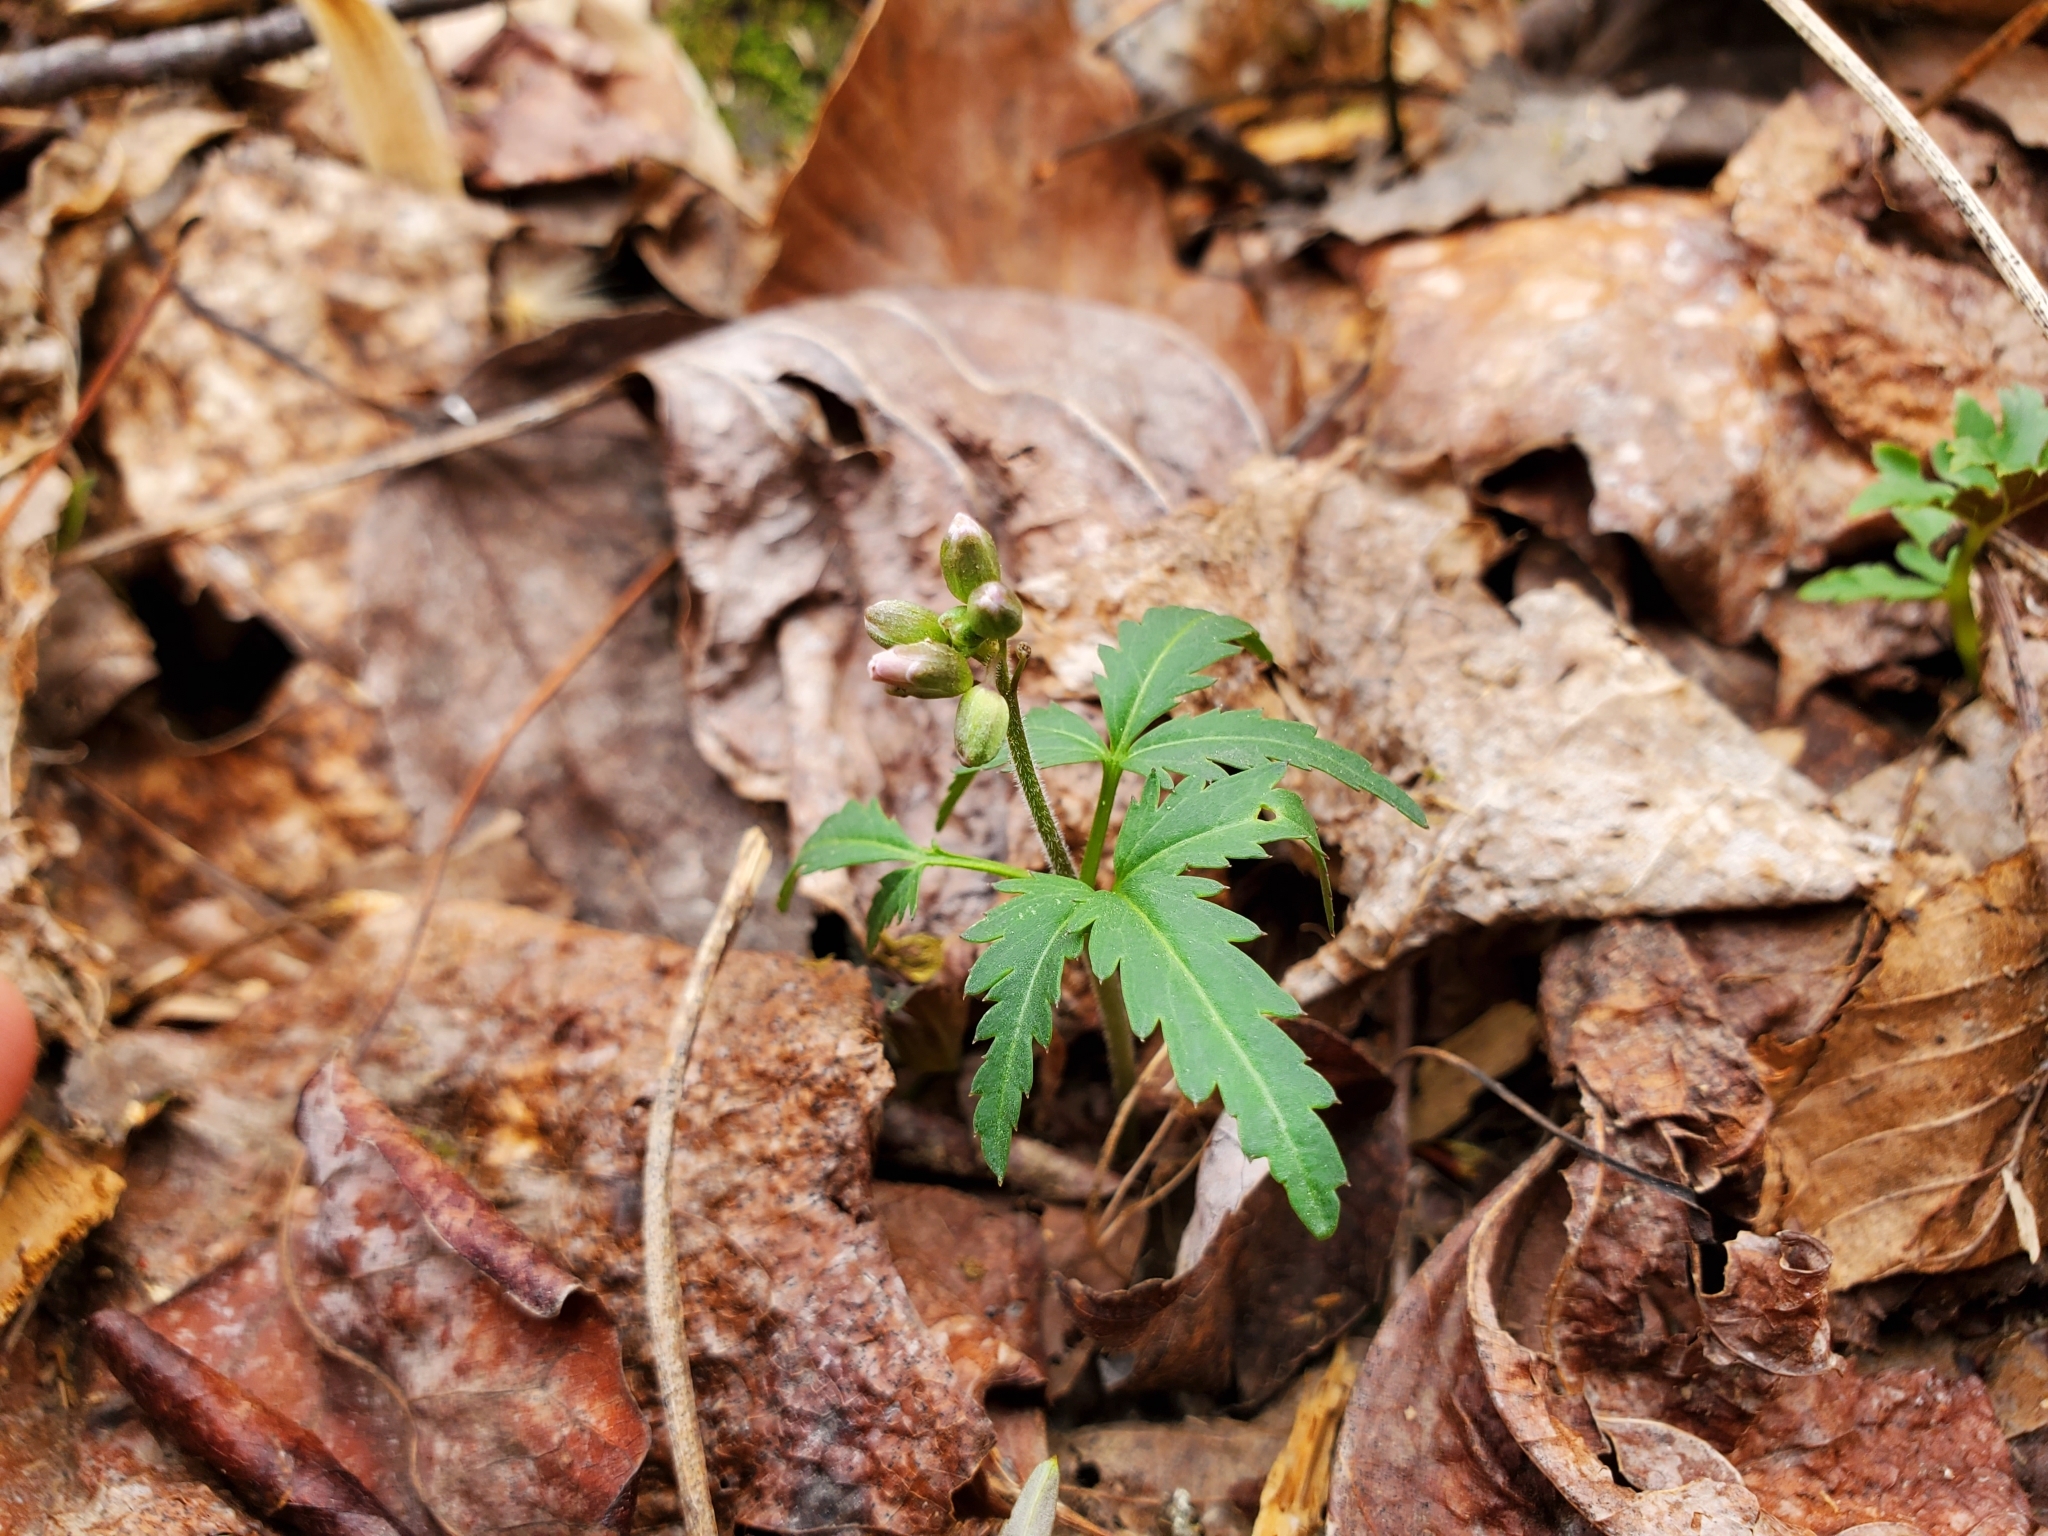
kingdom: Plantae
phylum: Tracheophyta
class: Magnoliopsida
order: Brassicales
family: Brassicaceae
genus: Cardamine
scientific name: Cardamine concatenata
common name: Cut-leaf toothcup
